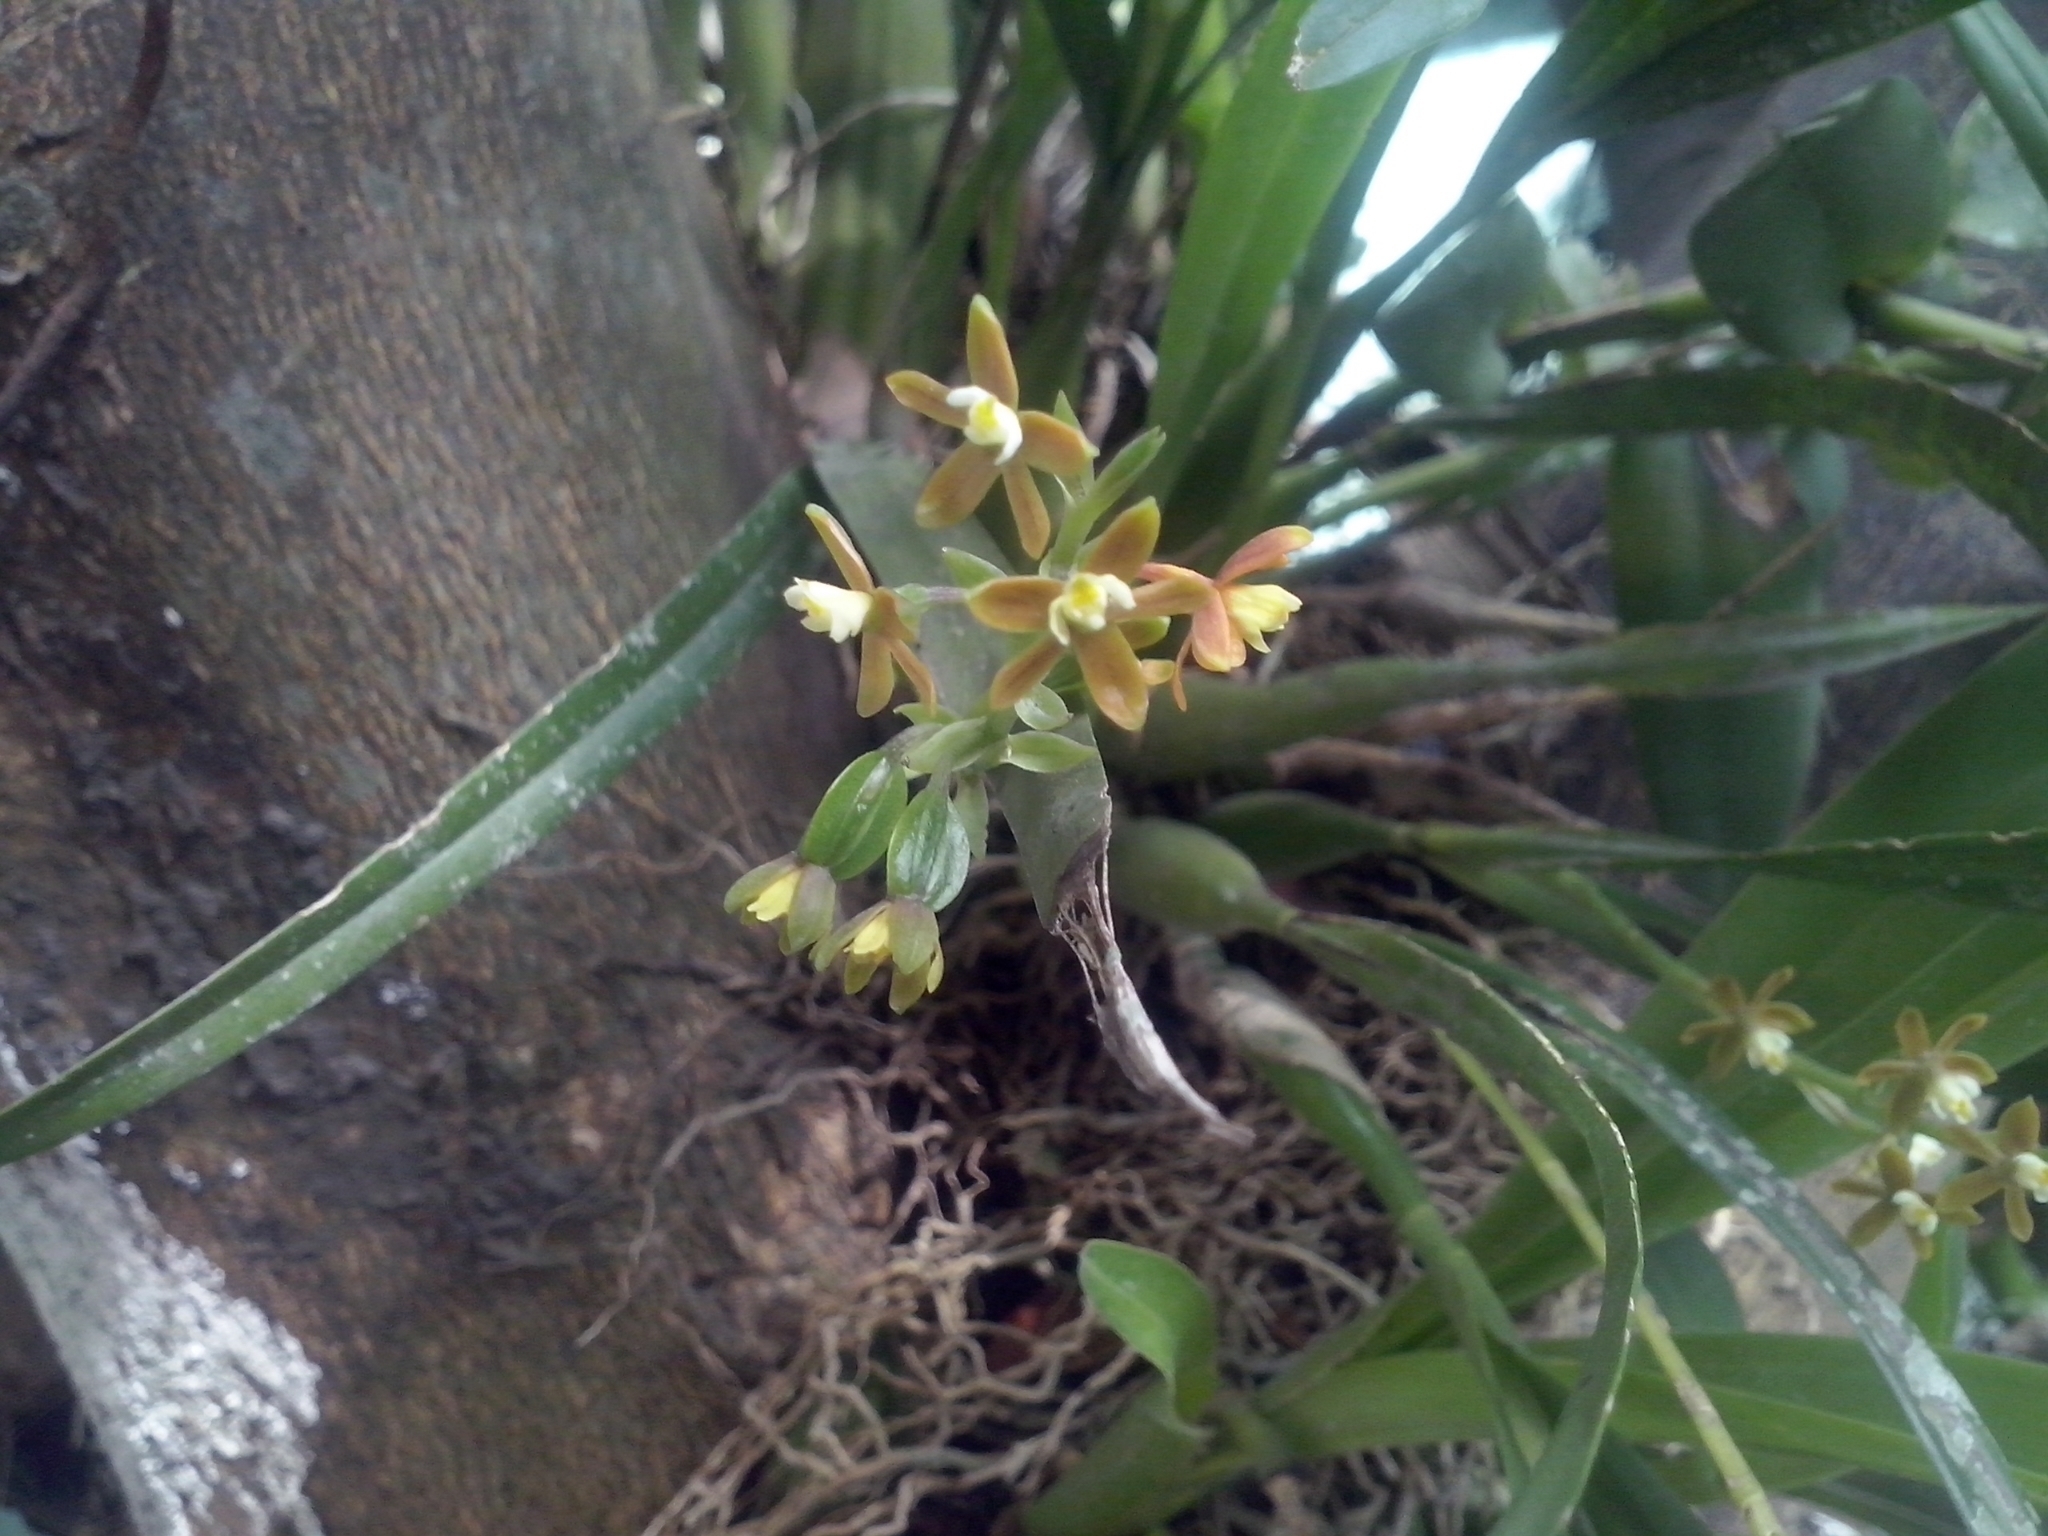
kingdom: Plantae
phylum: Tracheophyta
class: Liliopsida
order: Asparagales
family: Orchidaceae
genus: Prosthechea
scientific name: Prosthechea ochracea
